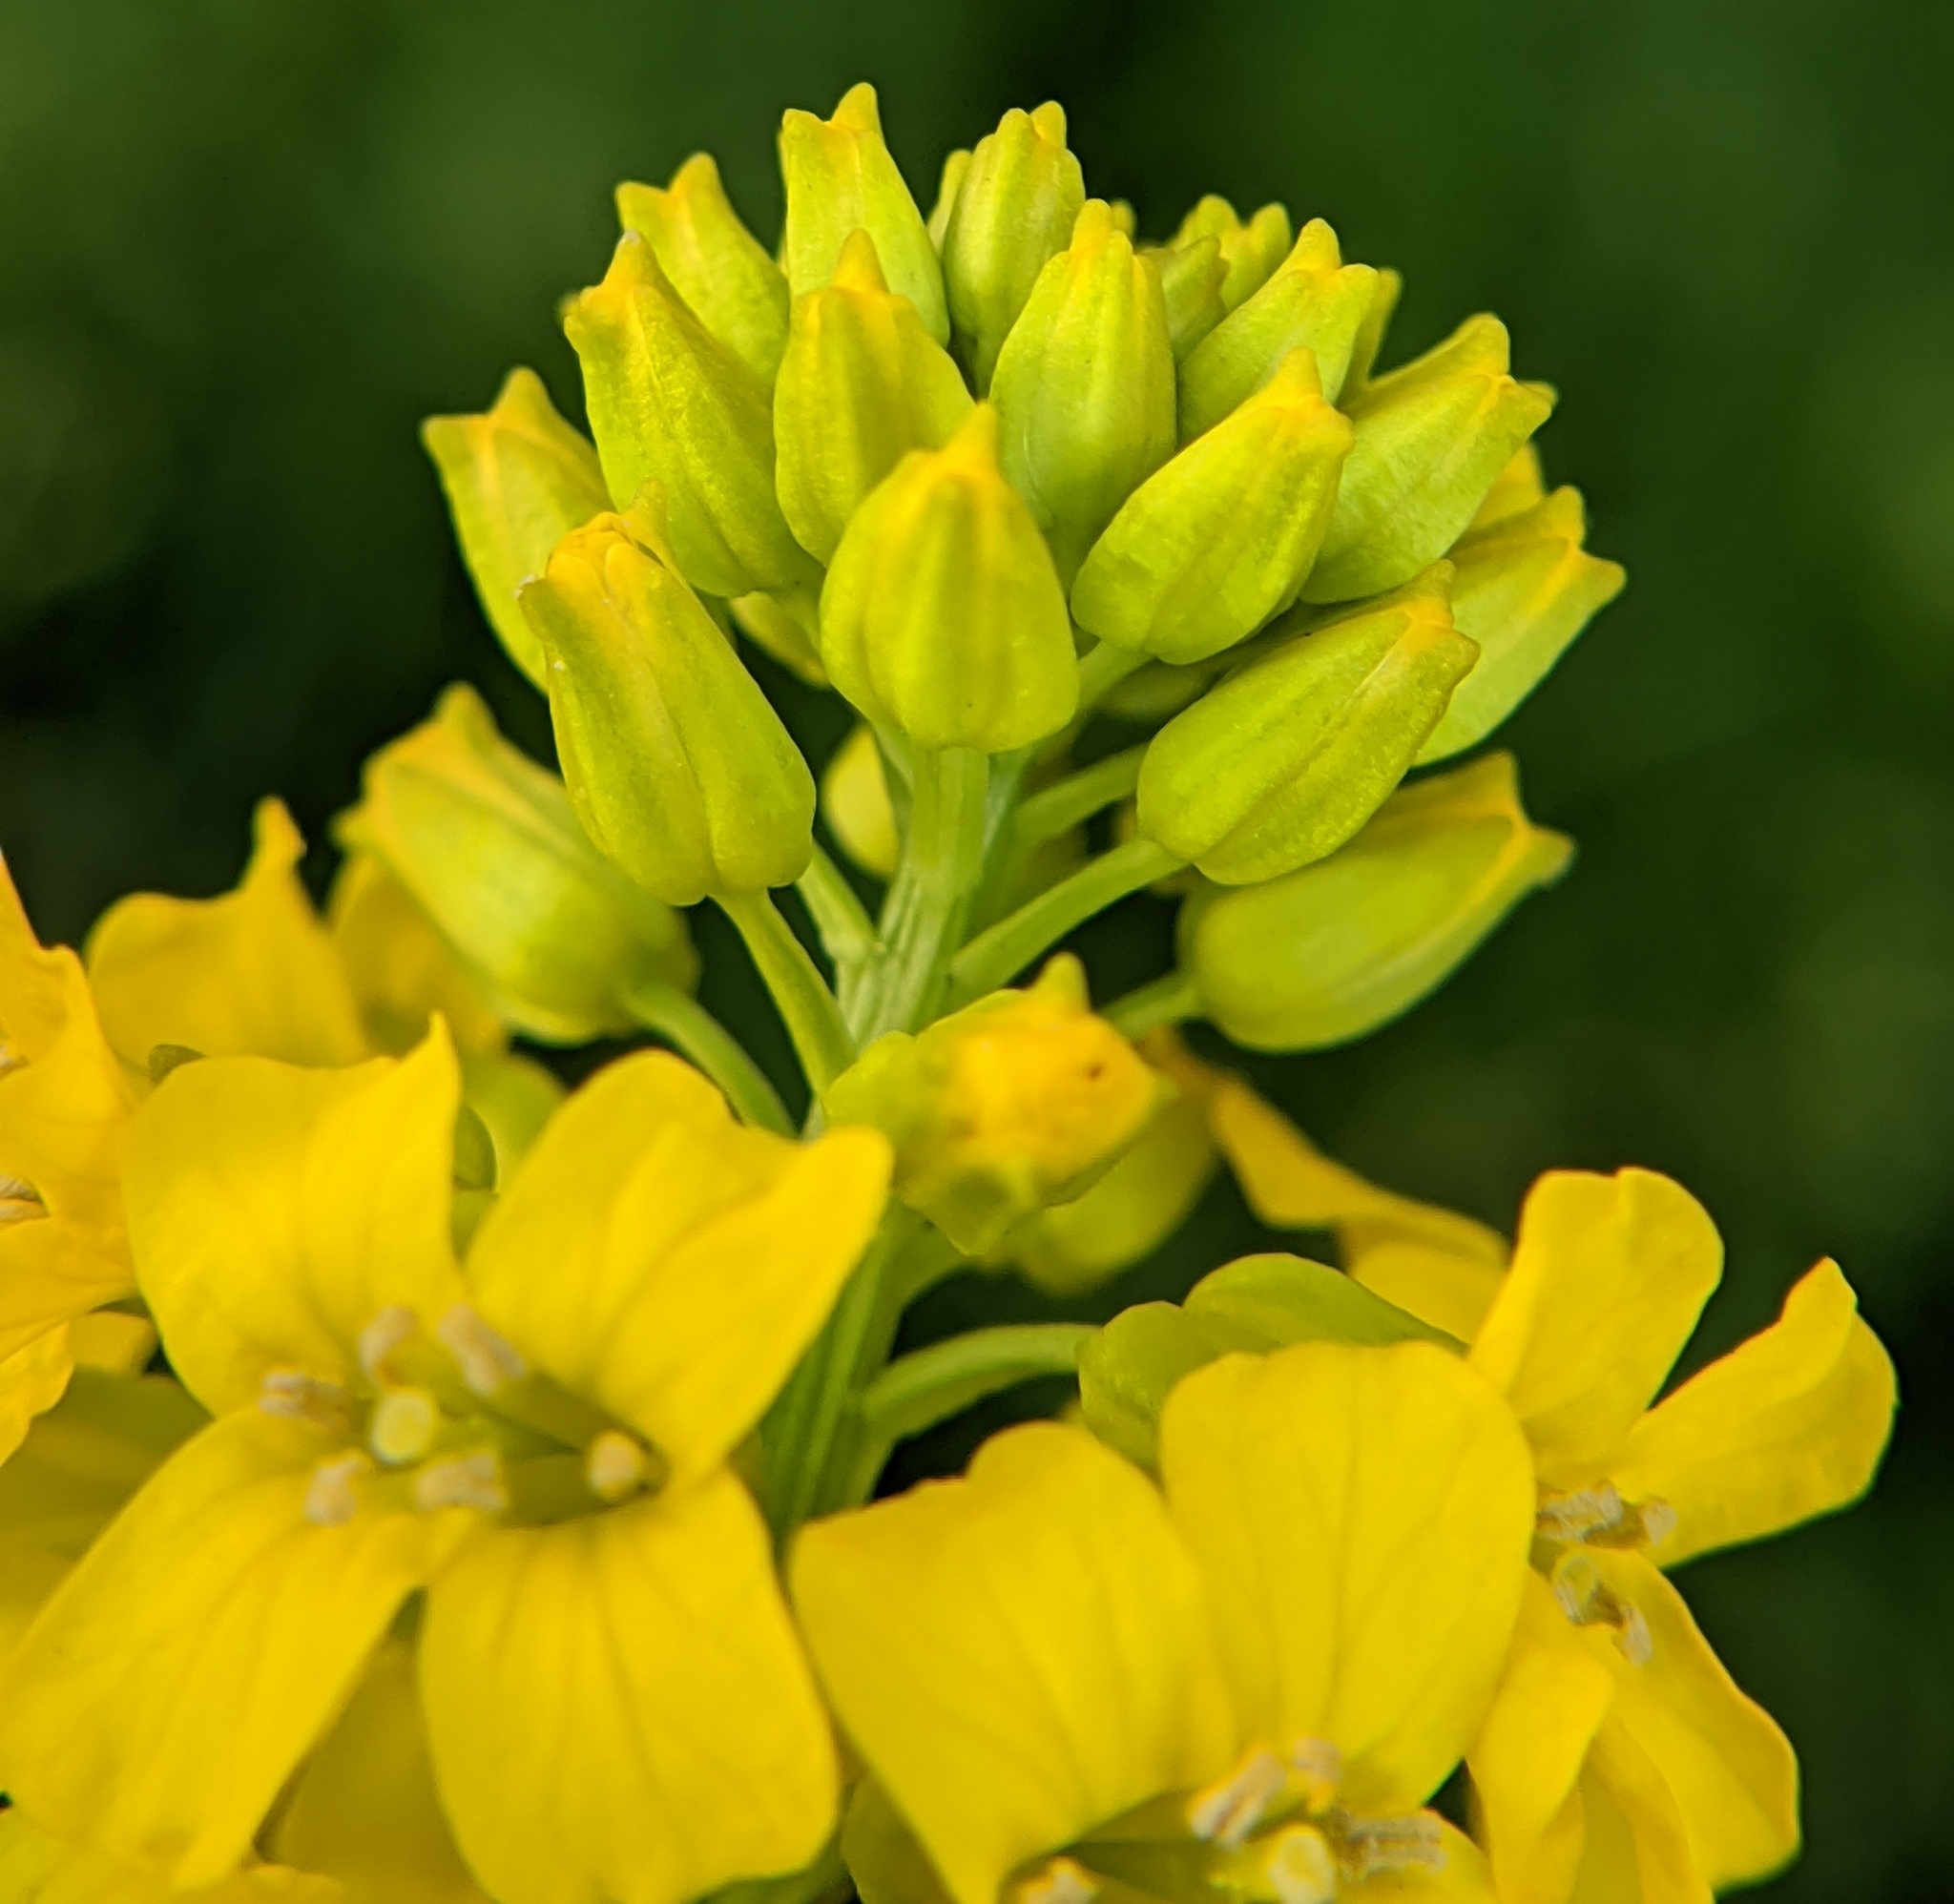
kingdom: Plantae
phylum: Tracheophyta
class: Magnoliopsida
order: Brassicales
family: Brassicaceae
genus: Barbarea
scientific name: Barbarea vulgaris
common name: Cressy-greens
